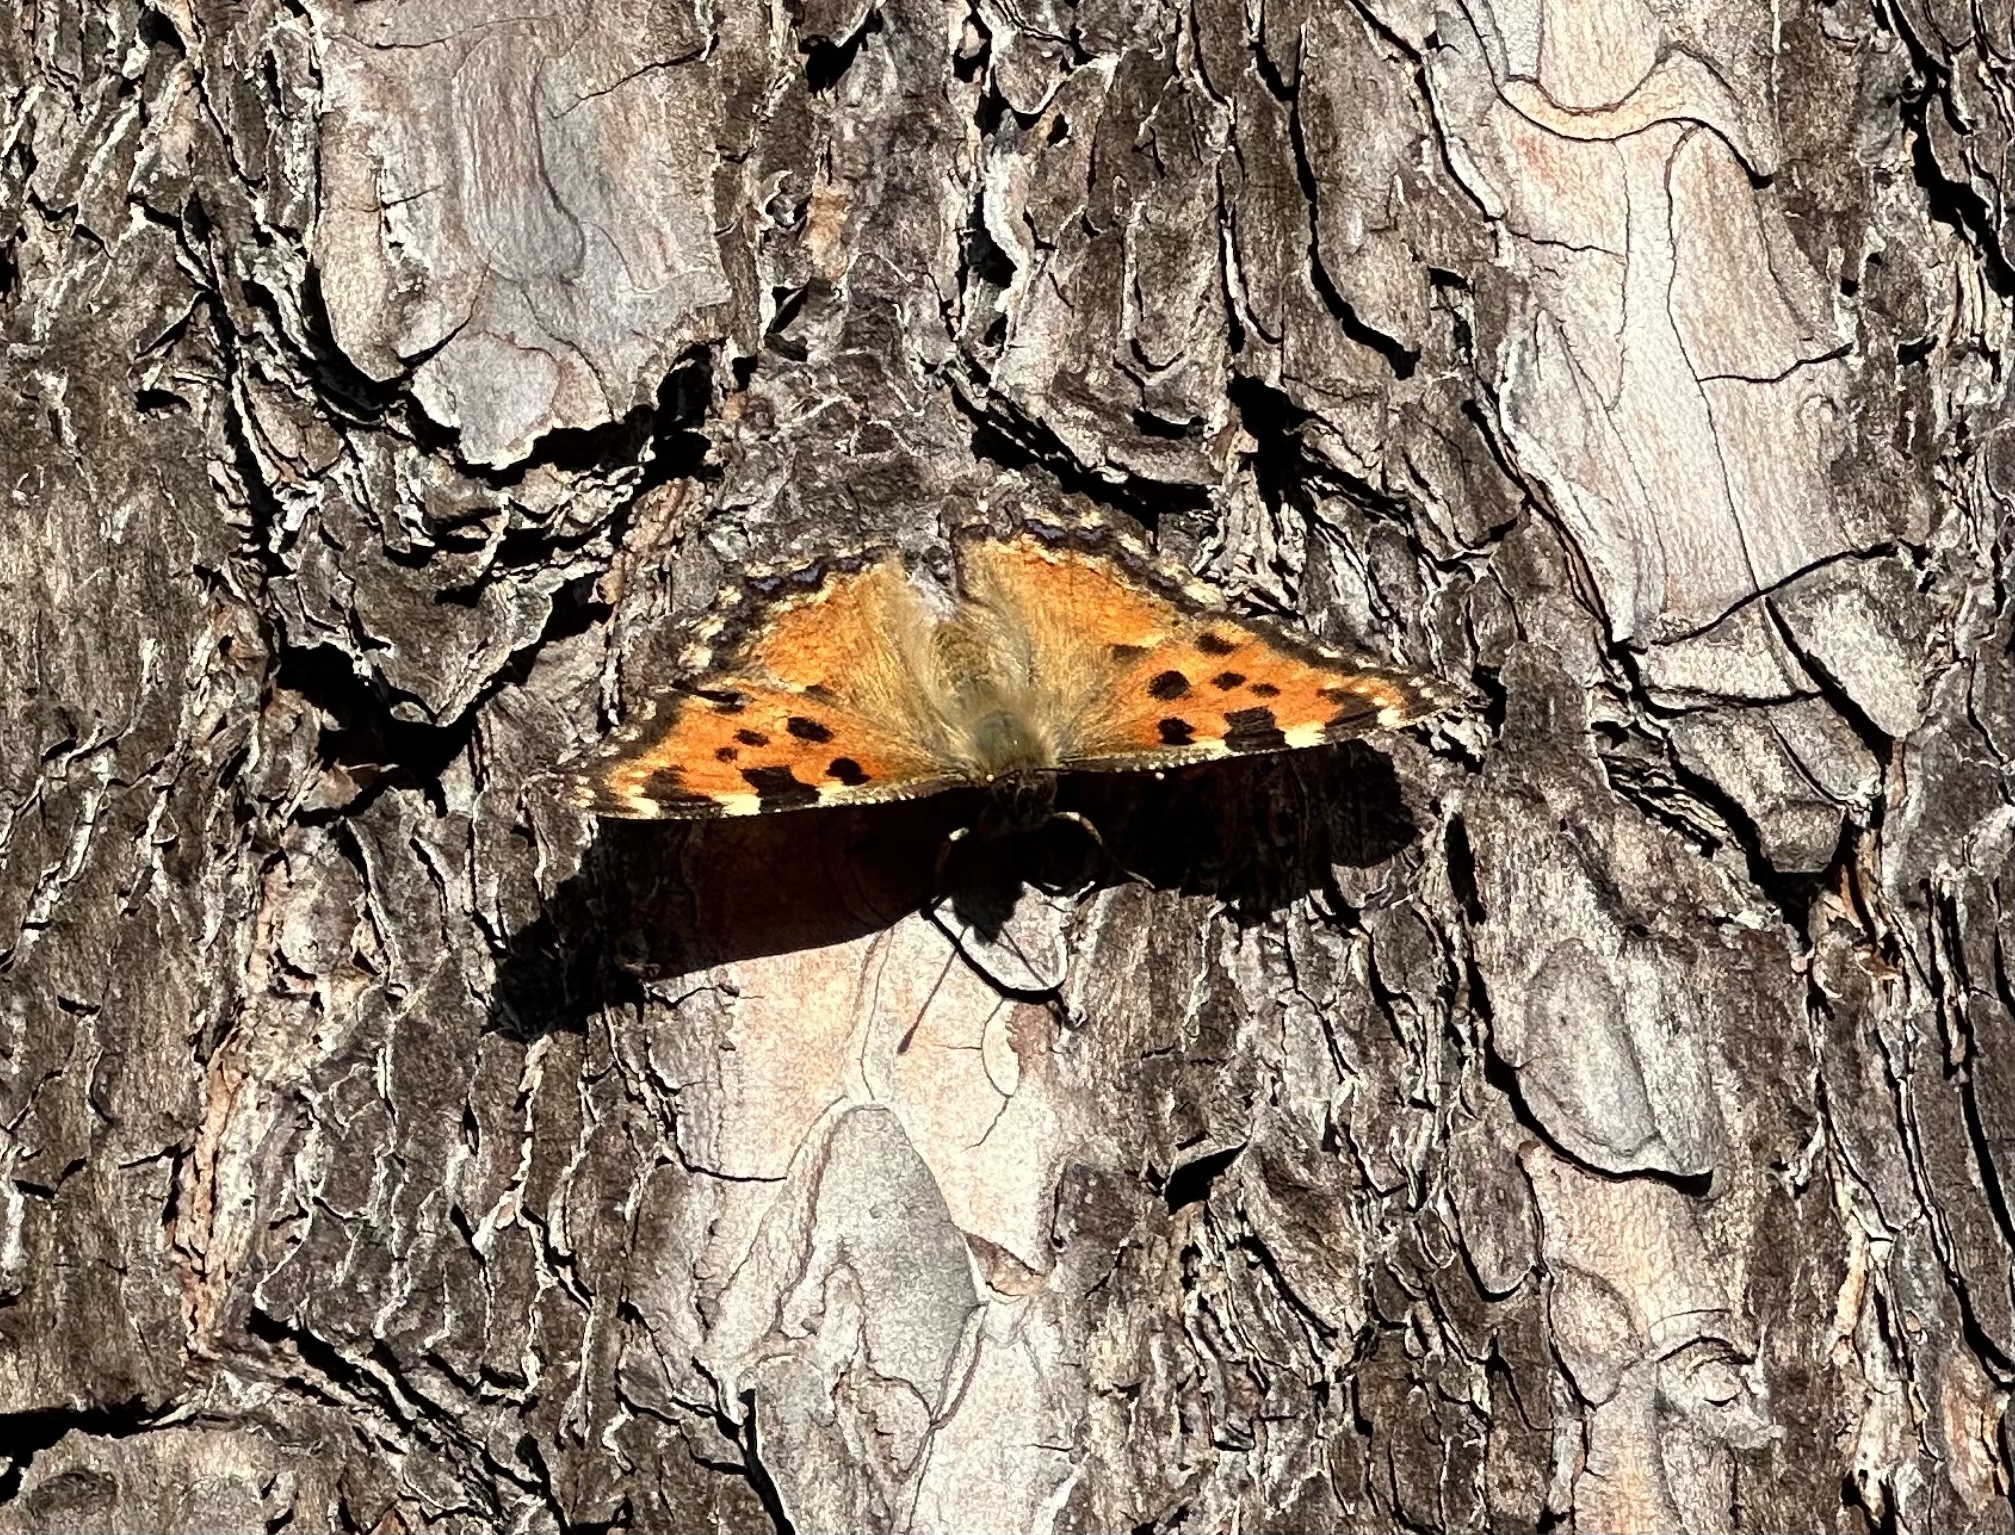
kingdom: Animalia
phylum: Arthropoda
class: Insecta
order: Lepidoptera
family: Nymphalidae
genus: Nymphalis
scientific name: Nymphalis polychloros
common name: Large tortoiseshell
